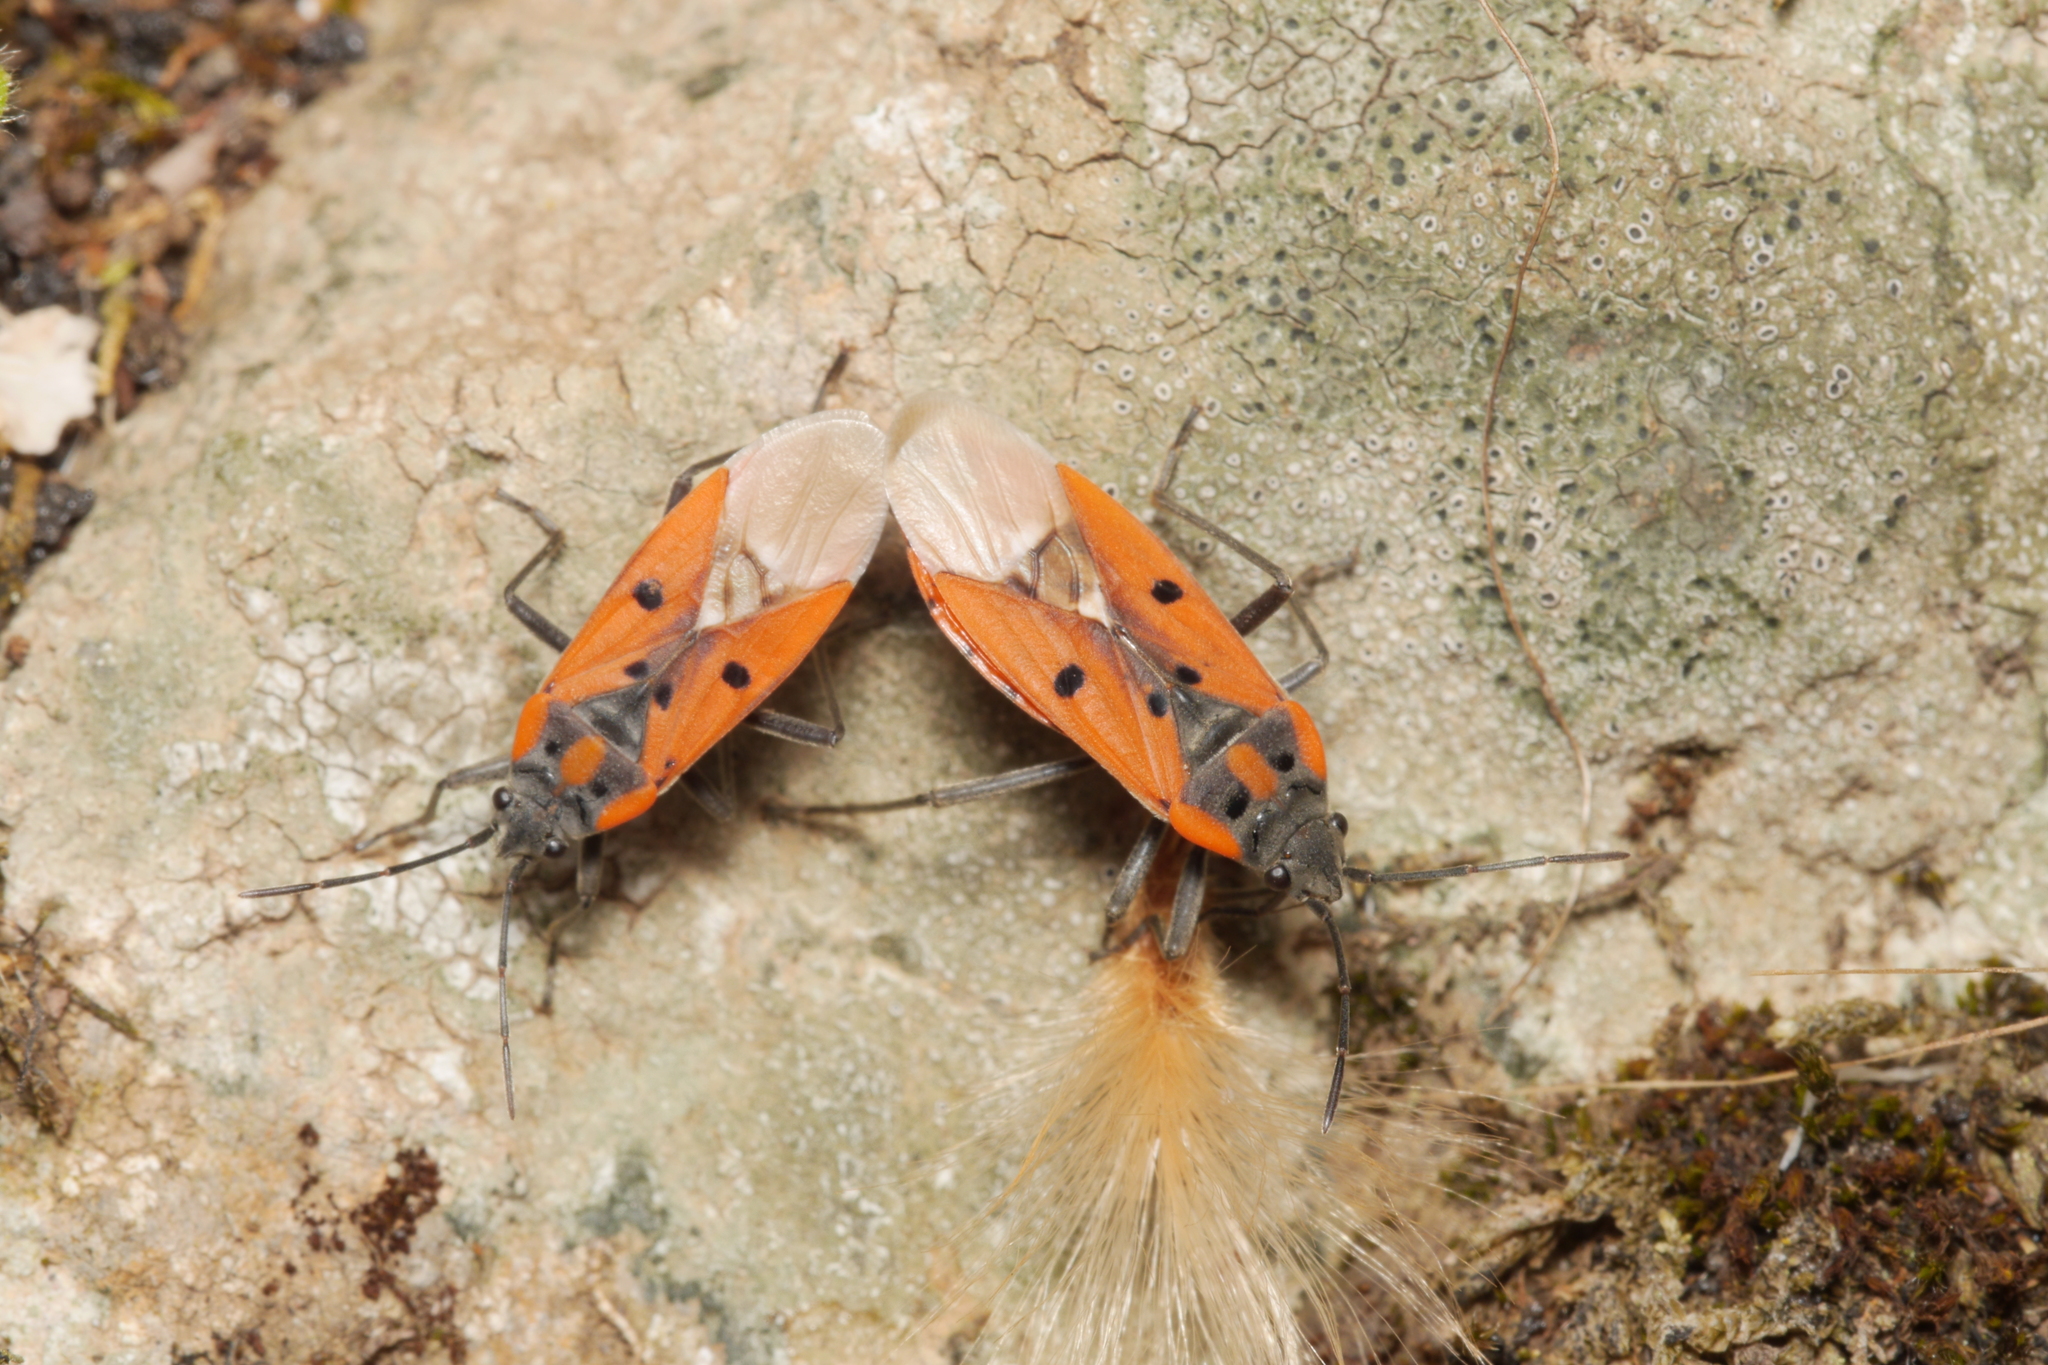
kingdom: Animalia
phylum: Arthropoda
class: Insecta
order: Hemiptera
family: Lygaeidae
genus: Lygaeus
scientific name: Lygaeus creticus
